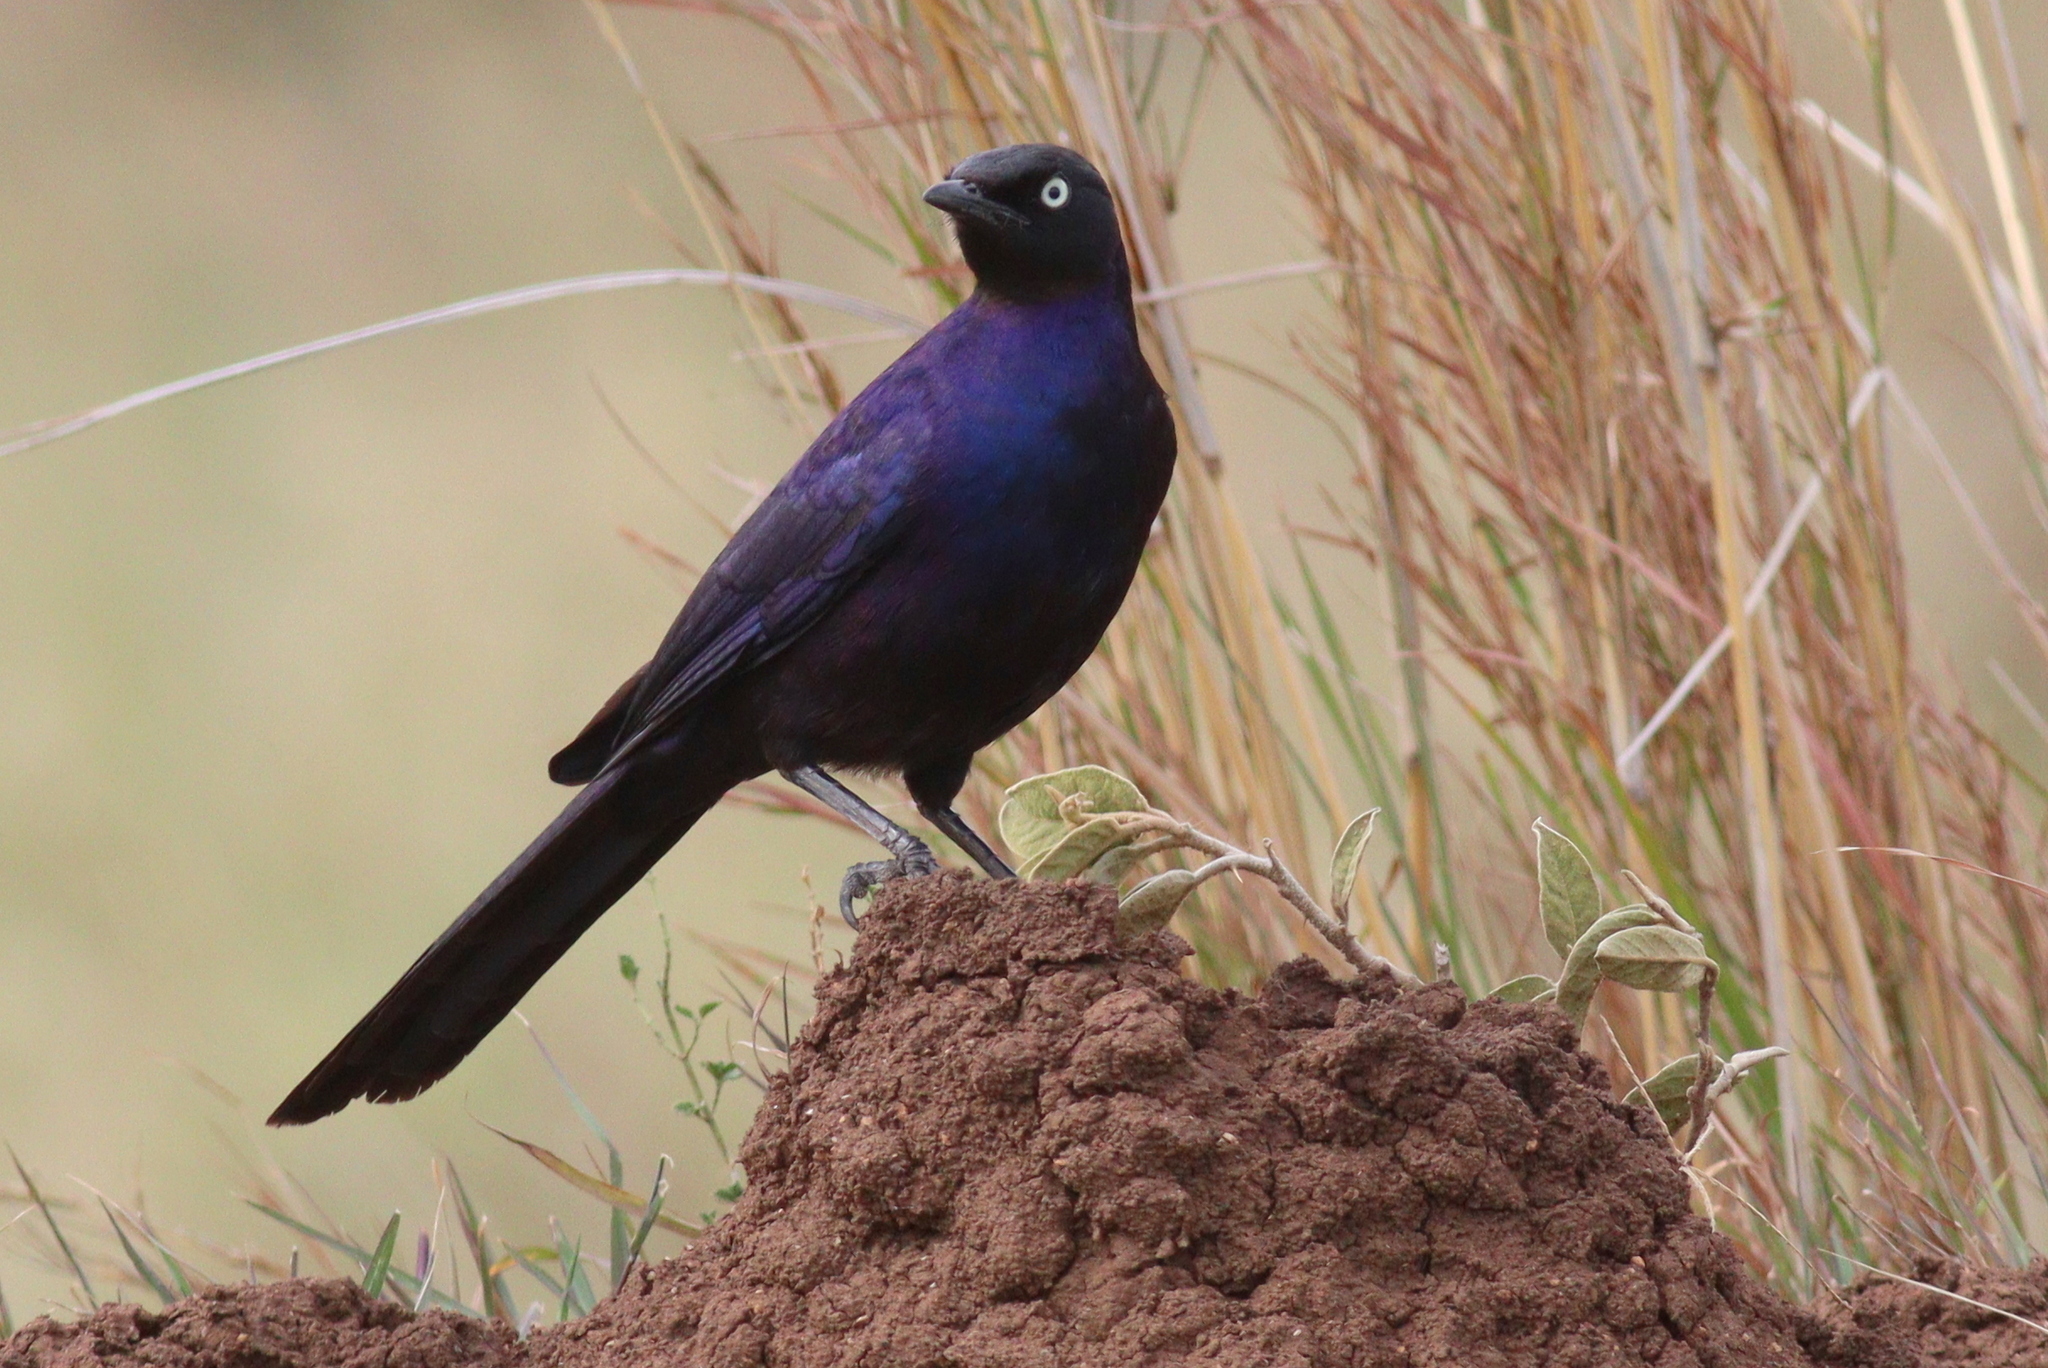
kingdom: Animalia
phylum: Chordata
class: Aves
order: Passeriformes
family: Sturnidae
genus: Lamprotornis
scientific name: Lamprotornis purpuroptera
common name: Rüppell's starling
